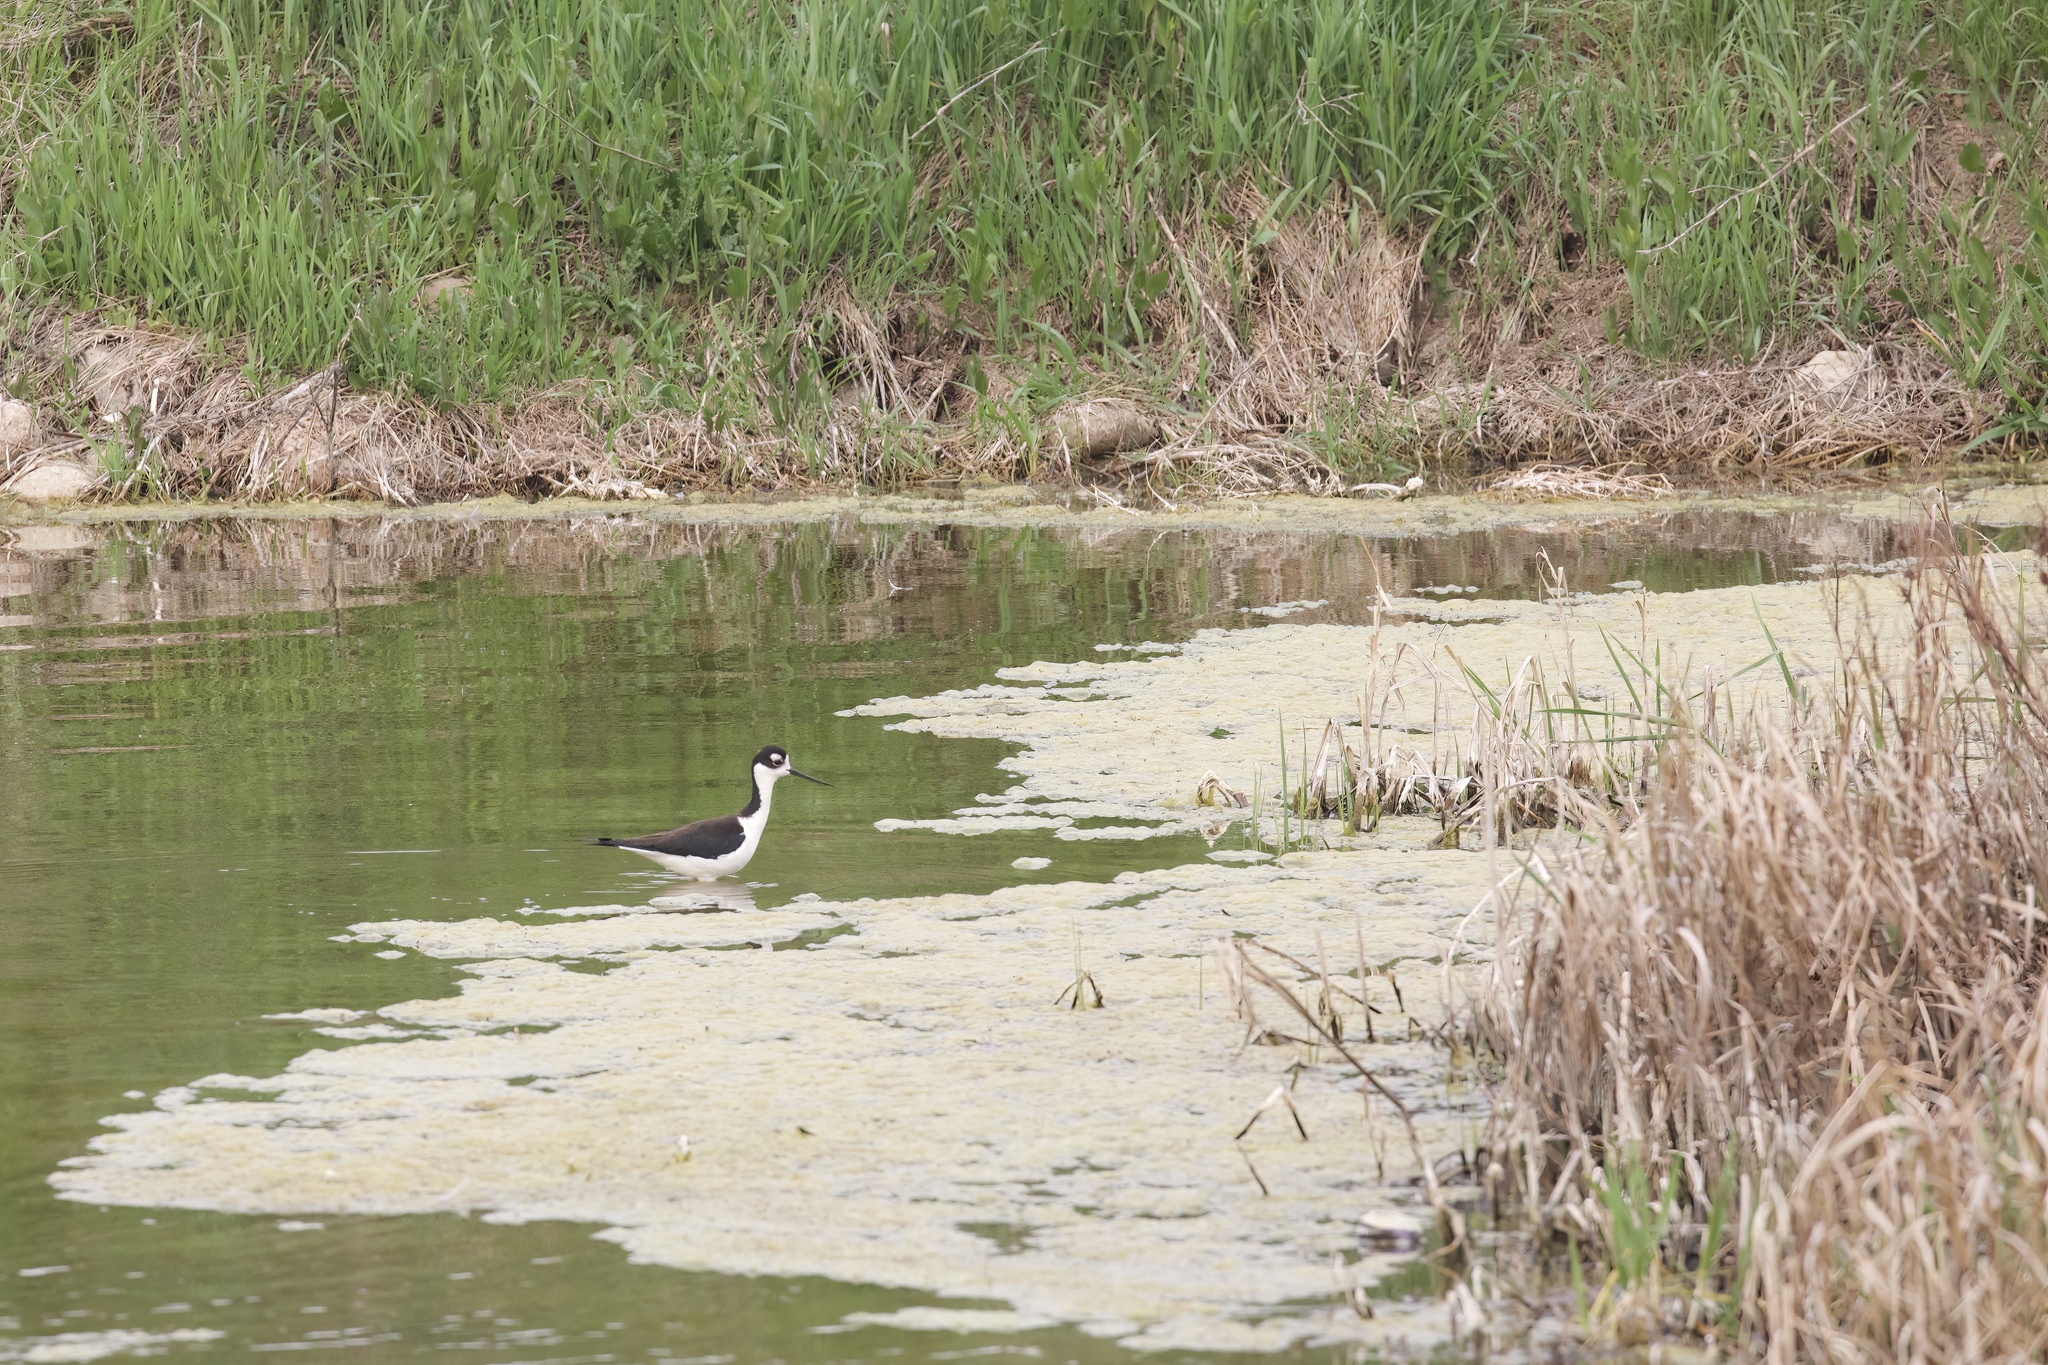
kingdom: Animalia
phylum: Chordata
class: Aves
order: Charadriiformes
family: Recurvirostridae
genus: Himantopus
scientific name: Himantopus mexicanus
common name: Black-necked stilt
